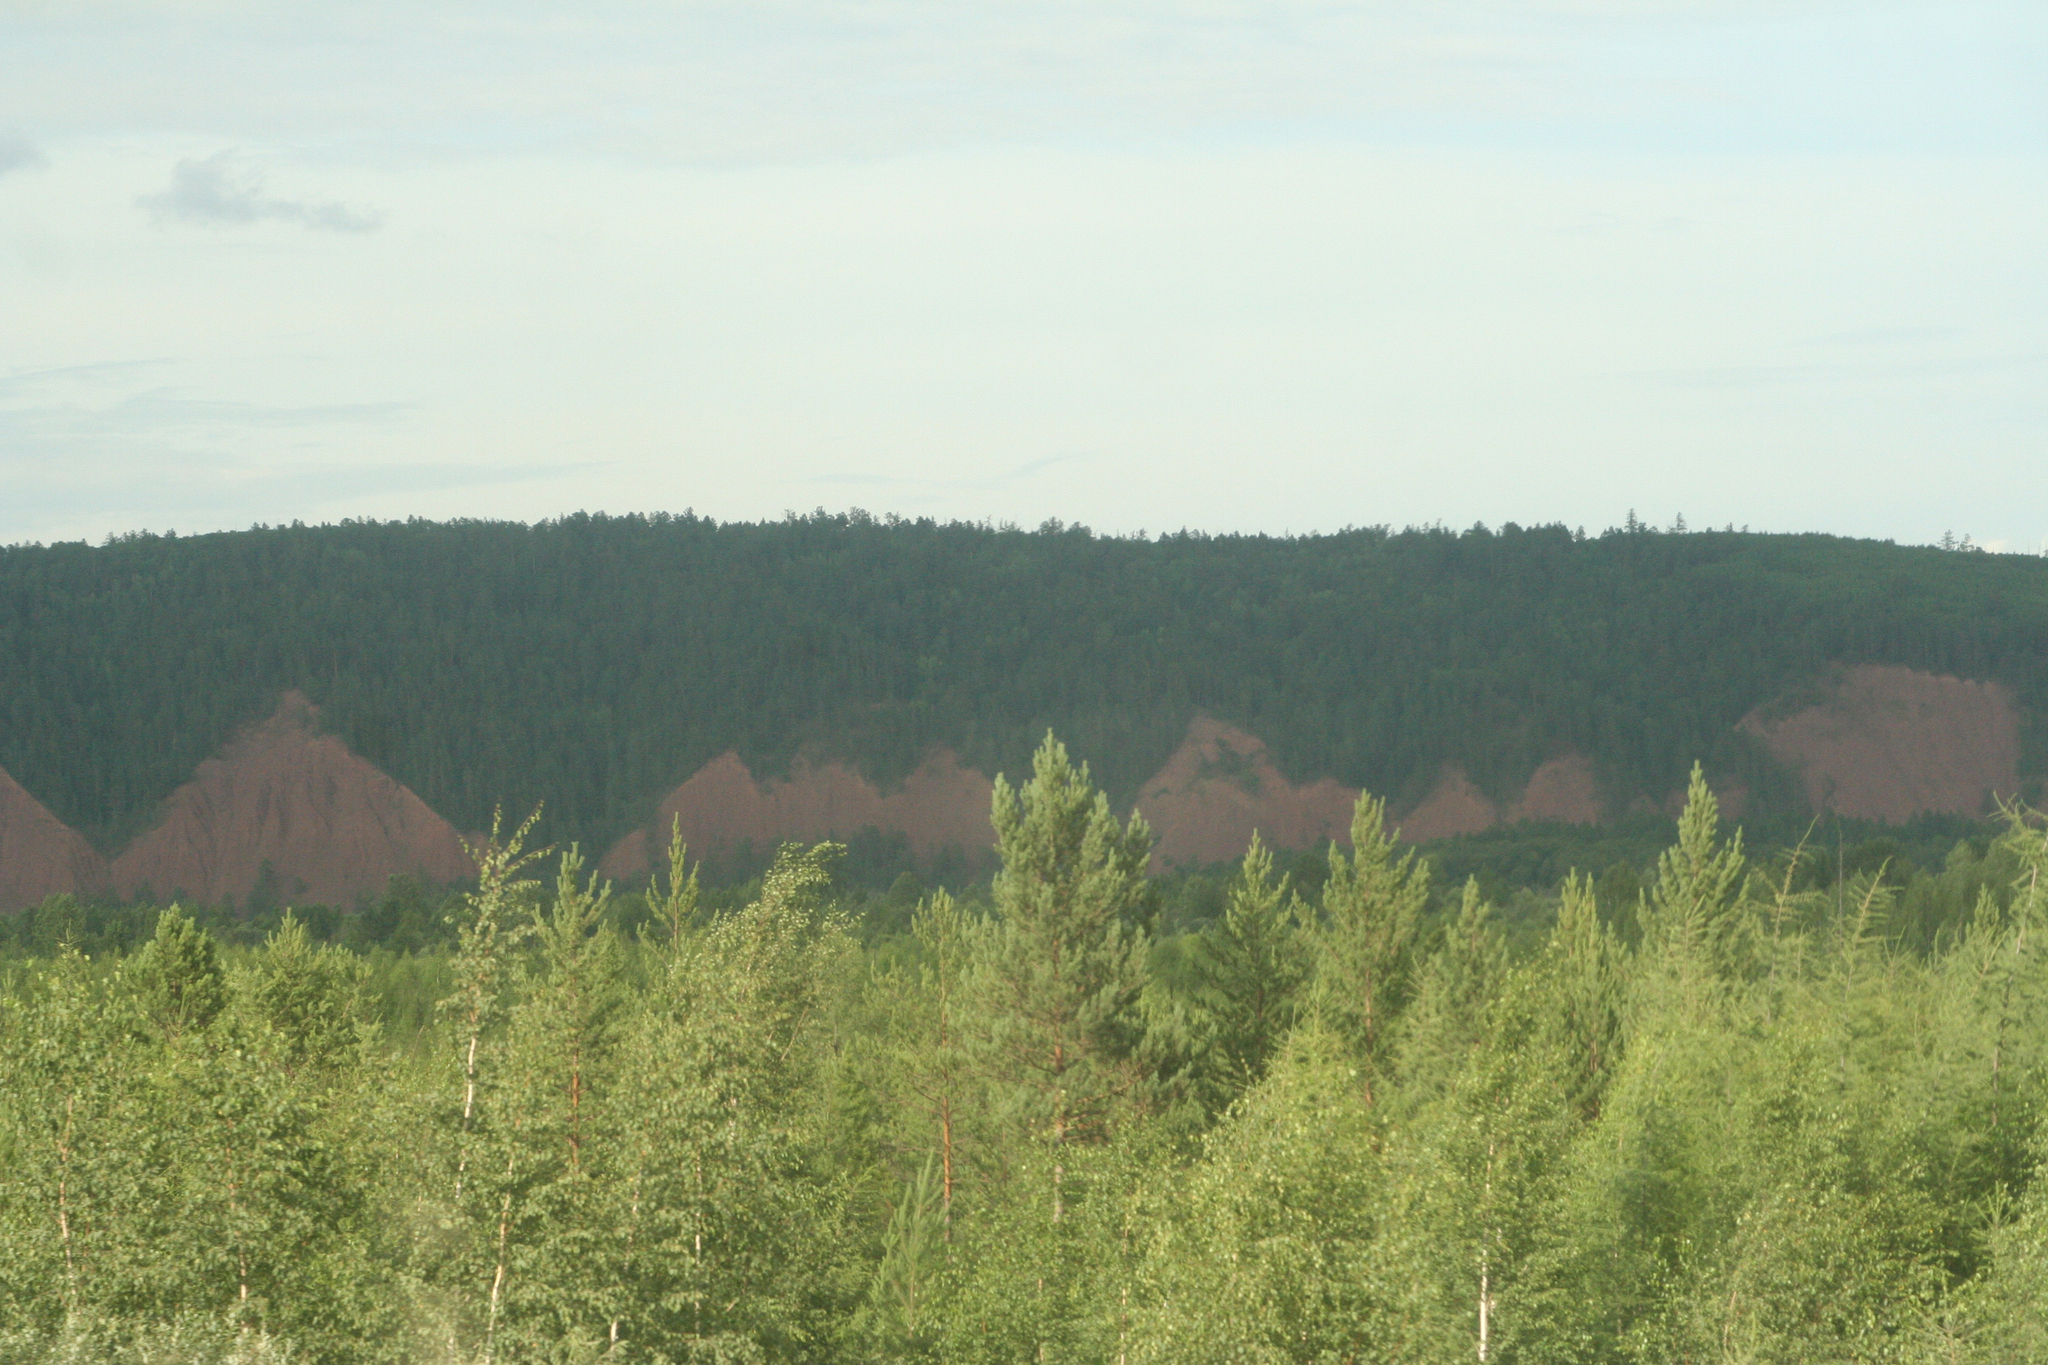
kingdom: Plantae
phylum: Tracheophyta
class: Pinopsida
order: Pinales
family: Pinaceae
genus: Pinus
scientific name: Pinus sylvestris
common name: Scots pine
